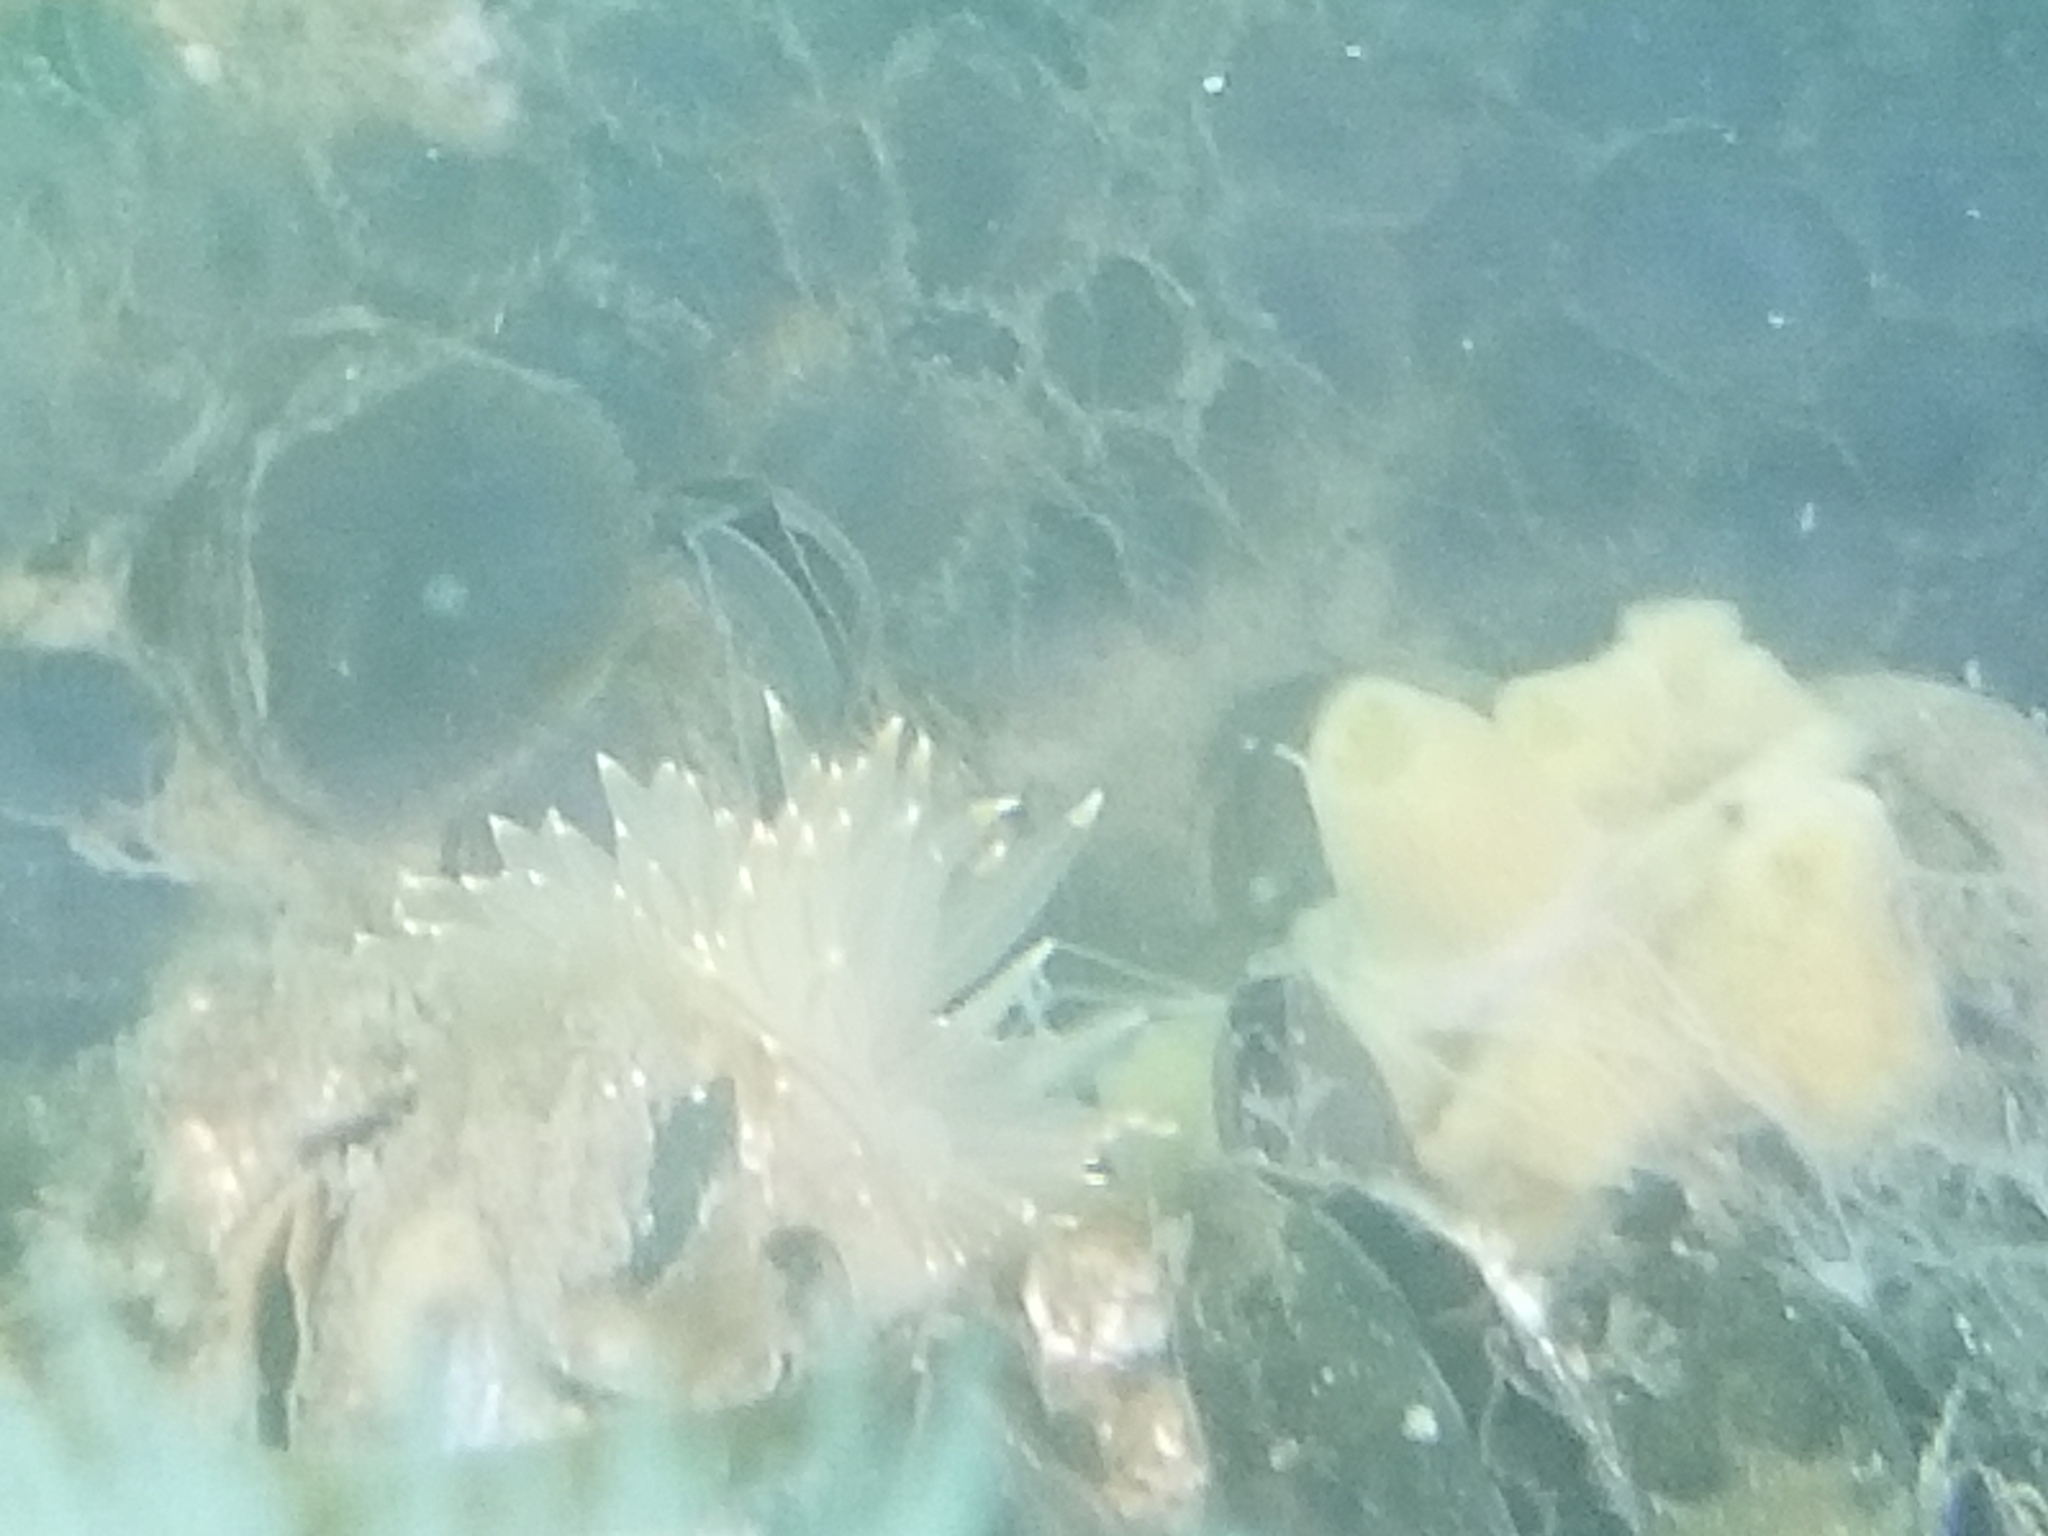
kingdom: Animalia
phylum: Mollusca
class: Gastropoda
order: Nudibranchia
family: Janolidae
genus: Antiopella
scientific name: Antiopella fusca
